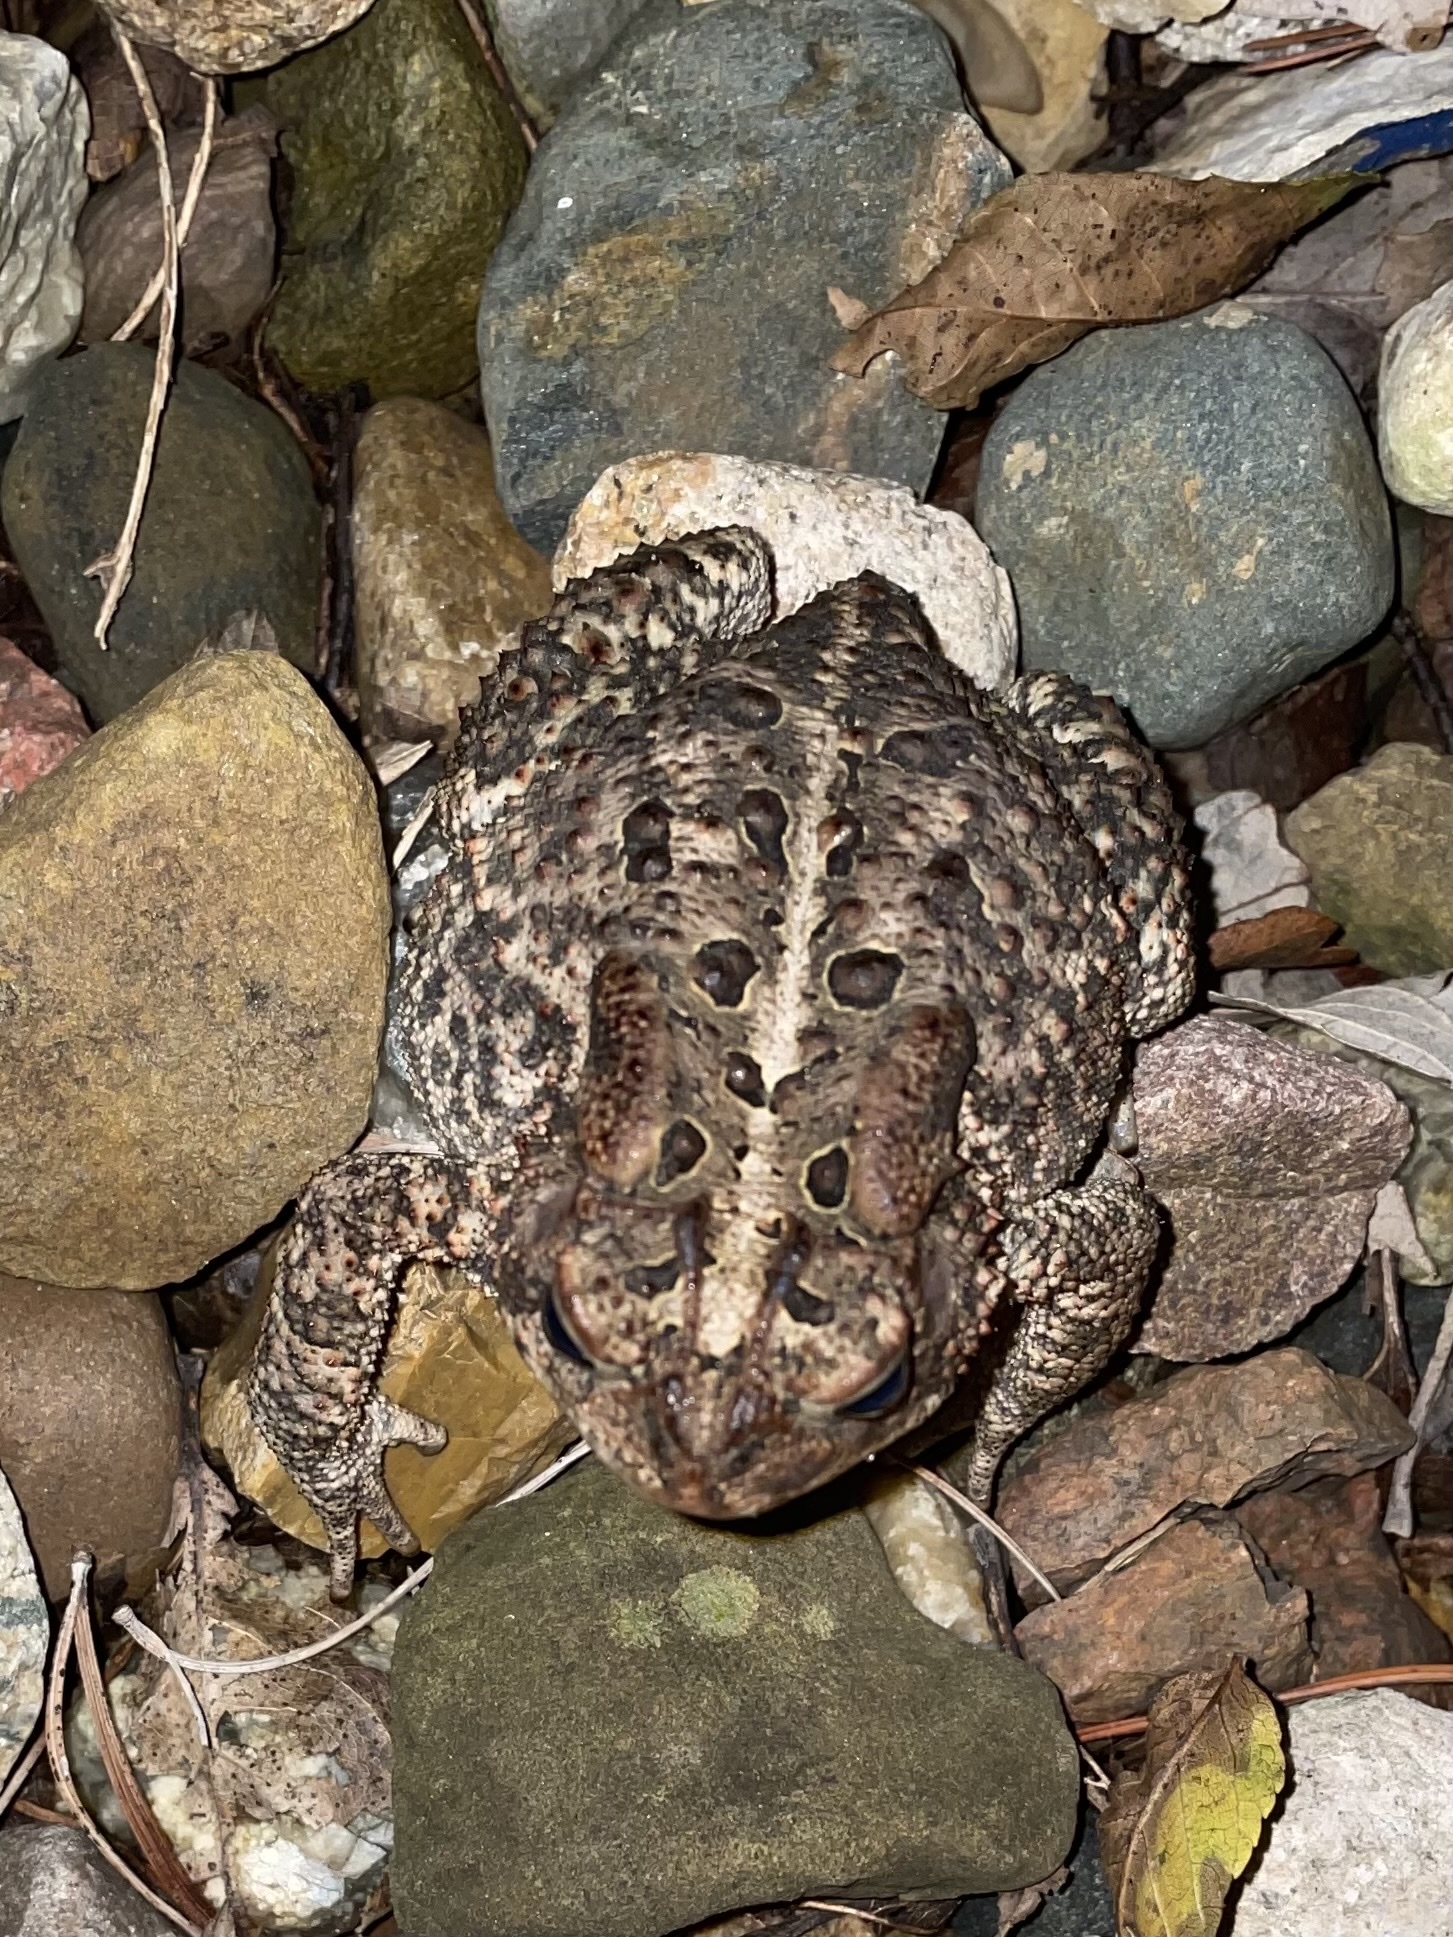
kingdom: Animalia
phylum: Chordata
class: Amphibia
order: Anura
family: Bufonidae
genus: Anaxyrus
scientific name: Anaxyrus americanus
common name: American toad
